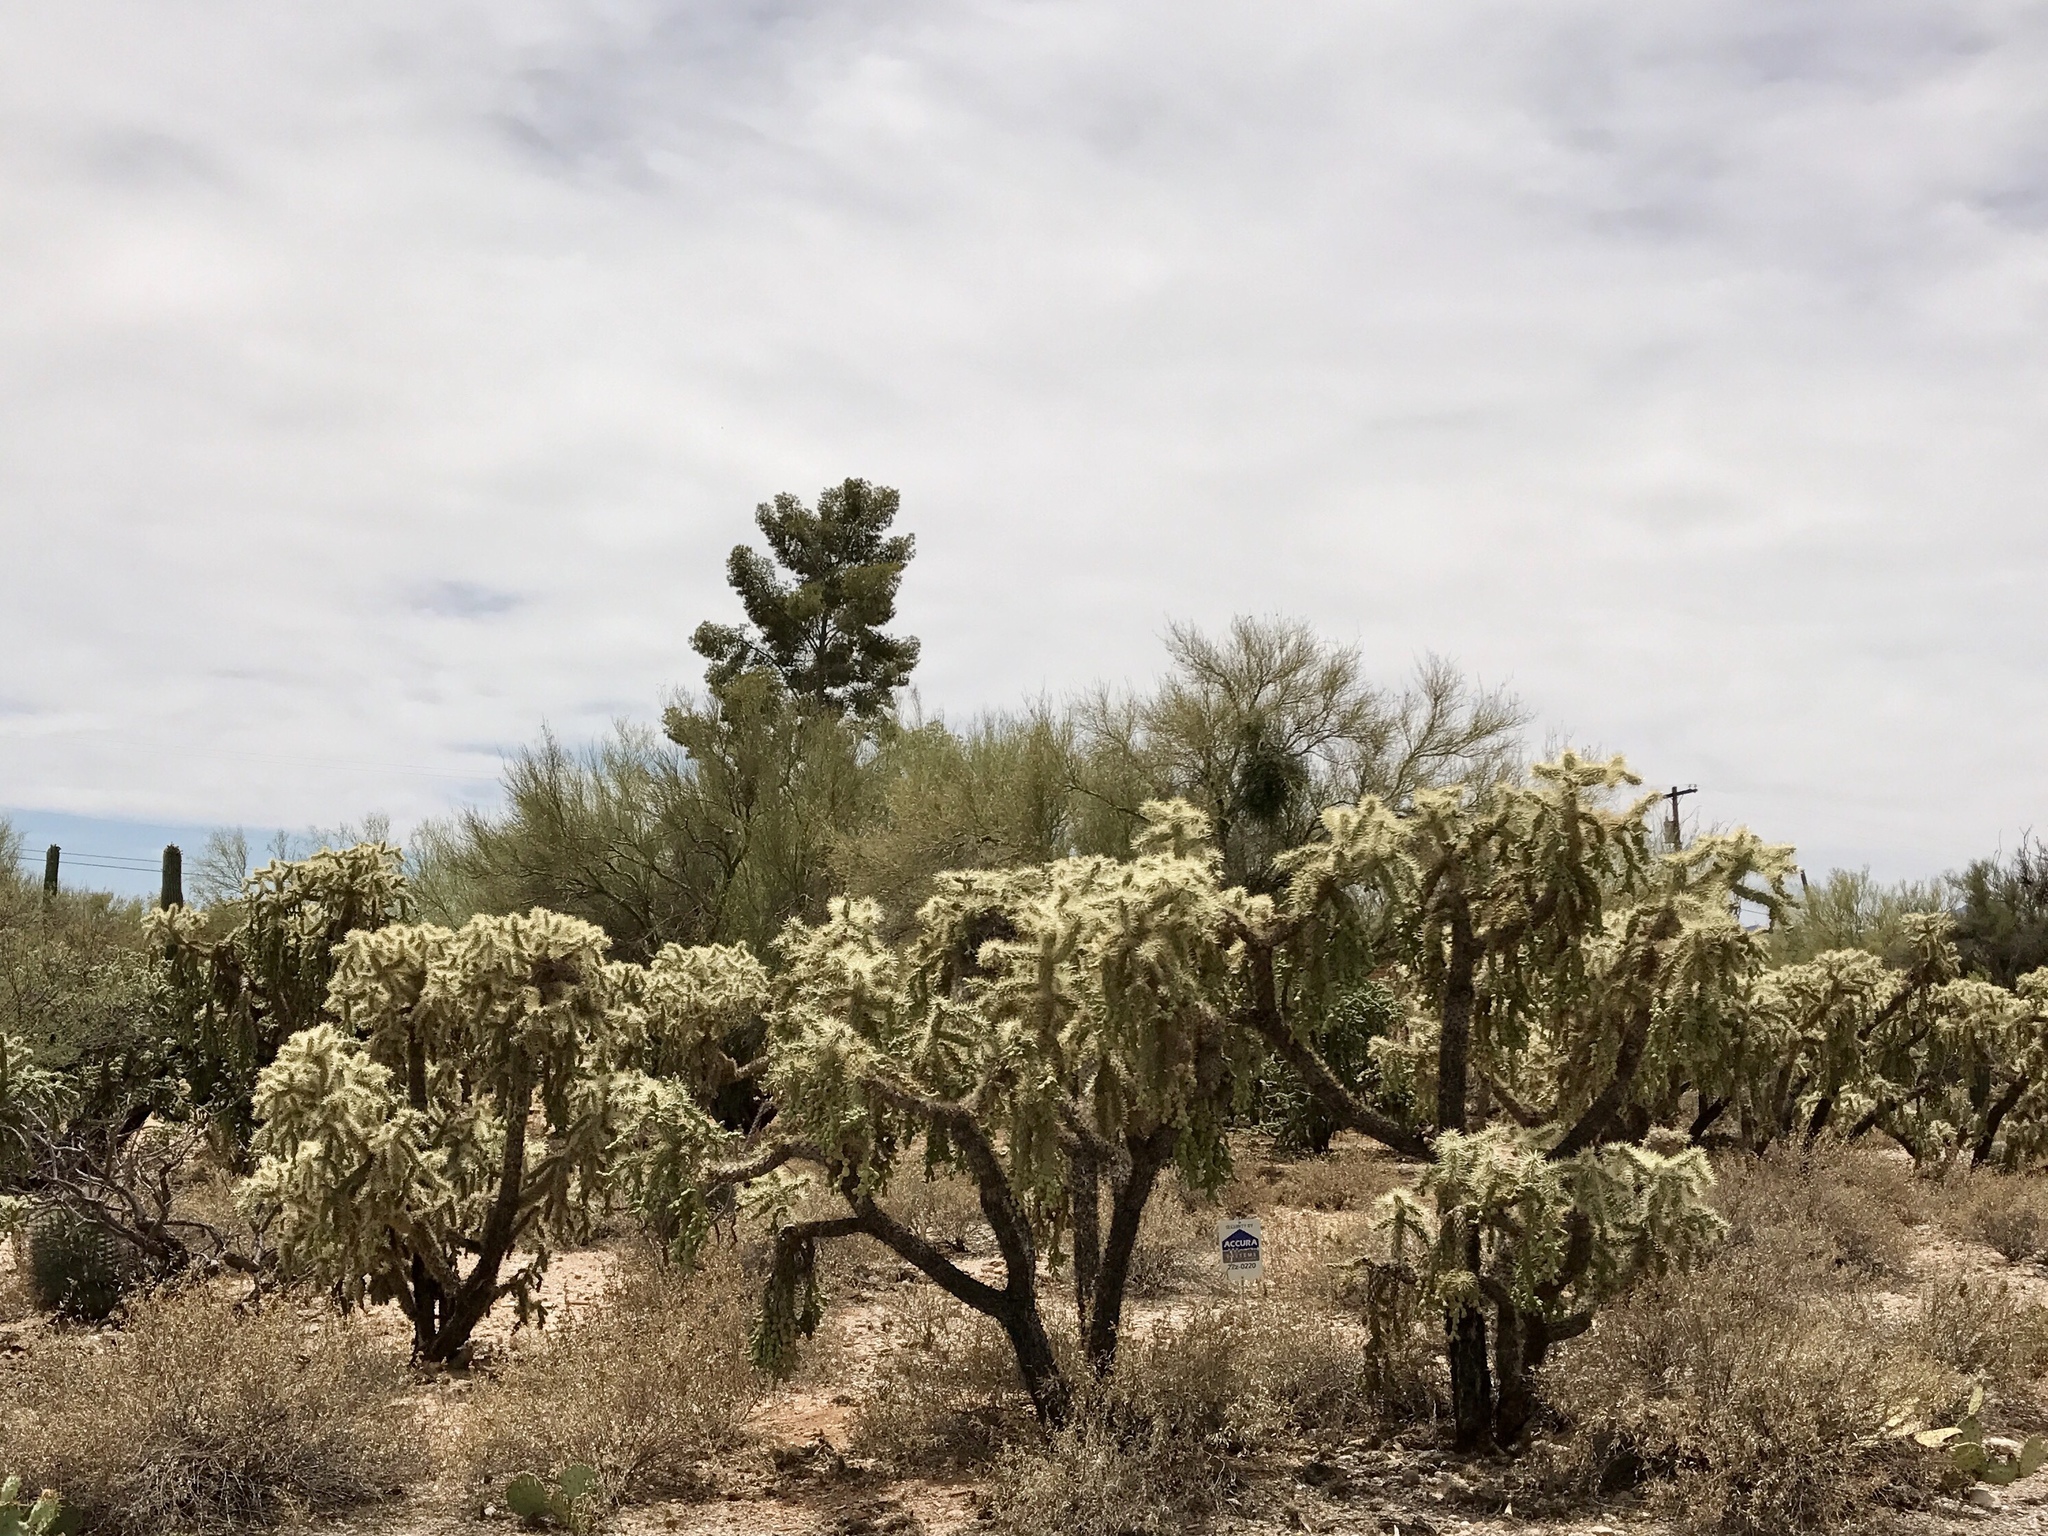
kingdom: Plantae
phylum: Tracheophyta
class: Magnoliopsida
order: Caryophyllales
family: Cactaceae
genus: Cylindropuntia
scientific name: Cylindropuntia fulgida
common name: Jumping cholla
